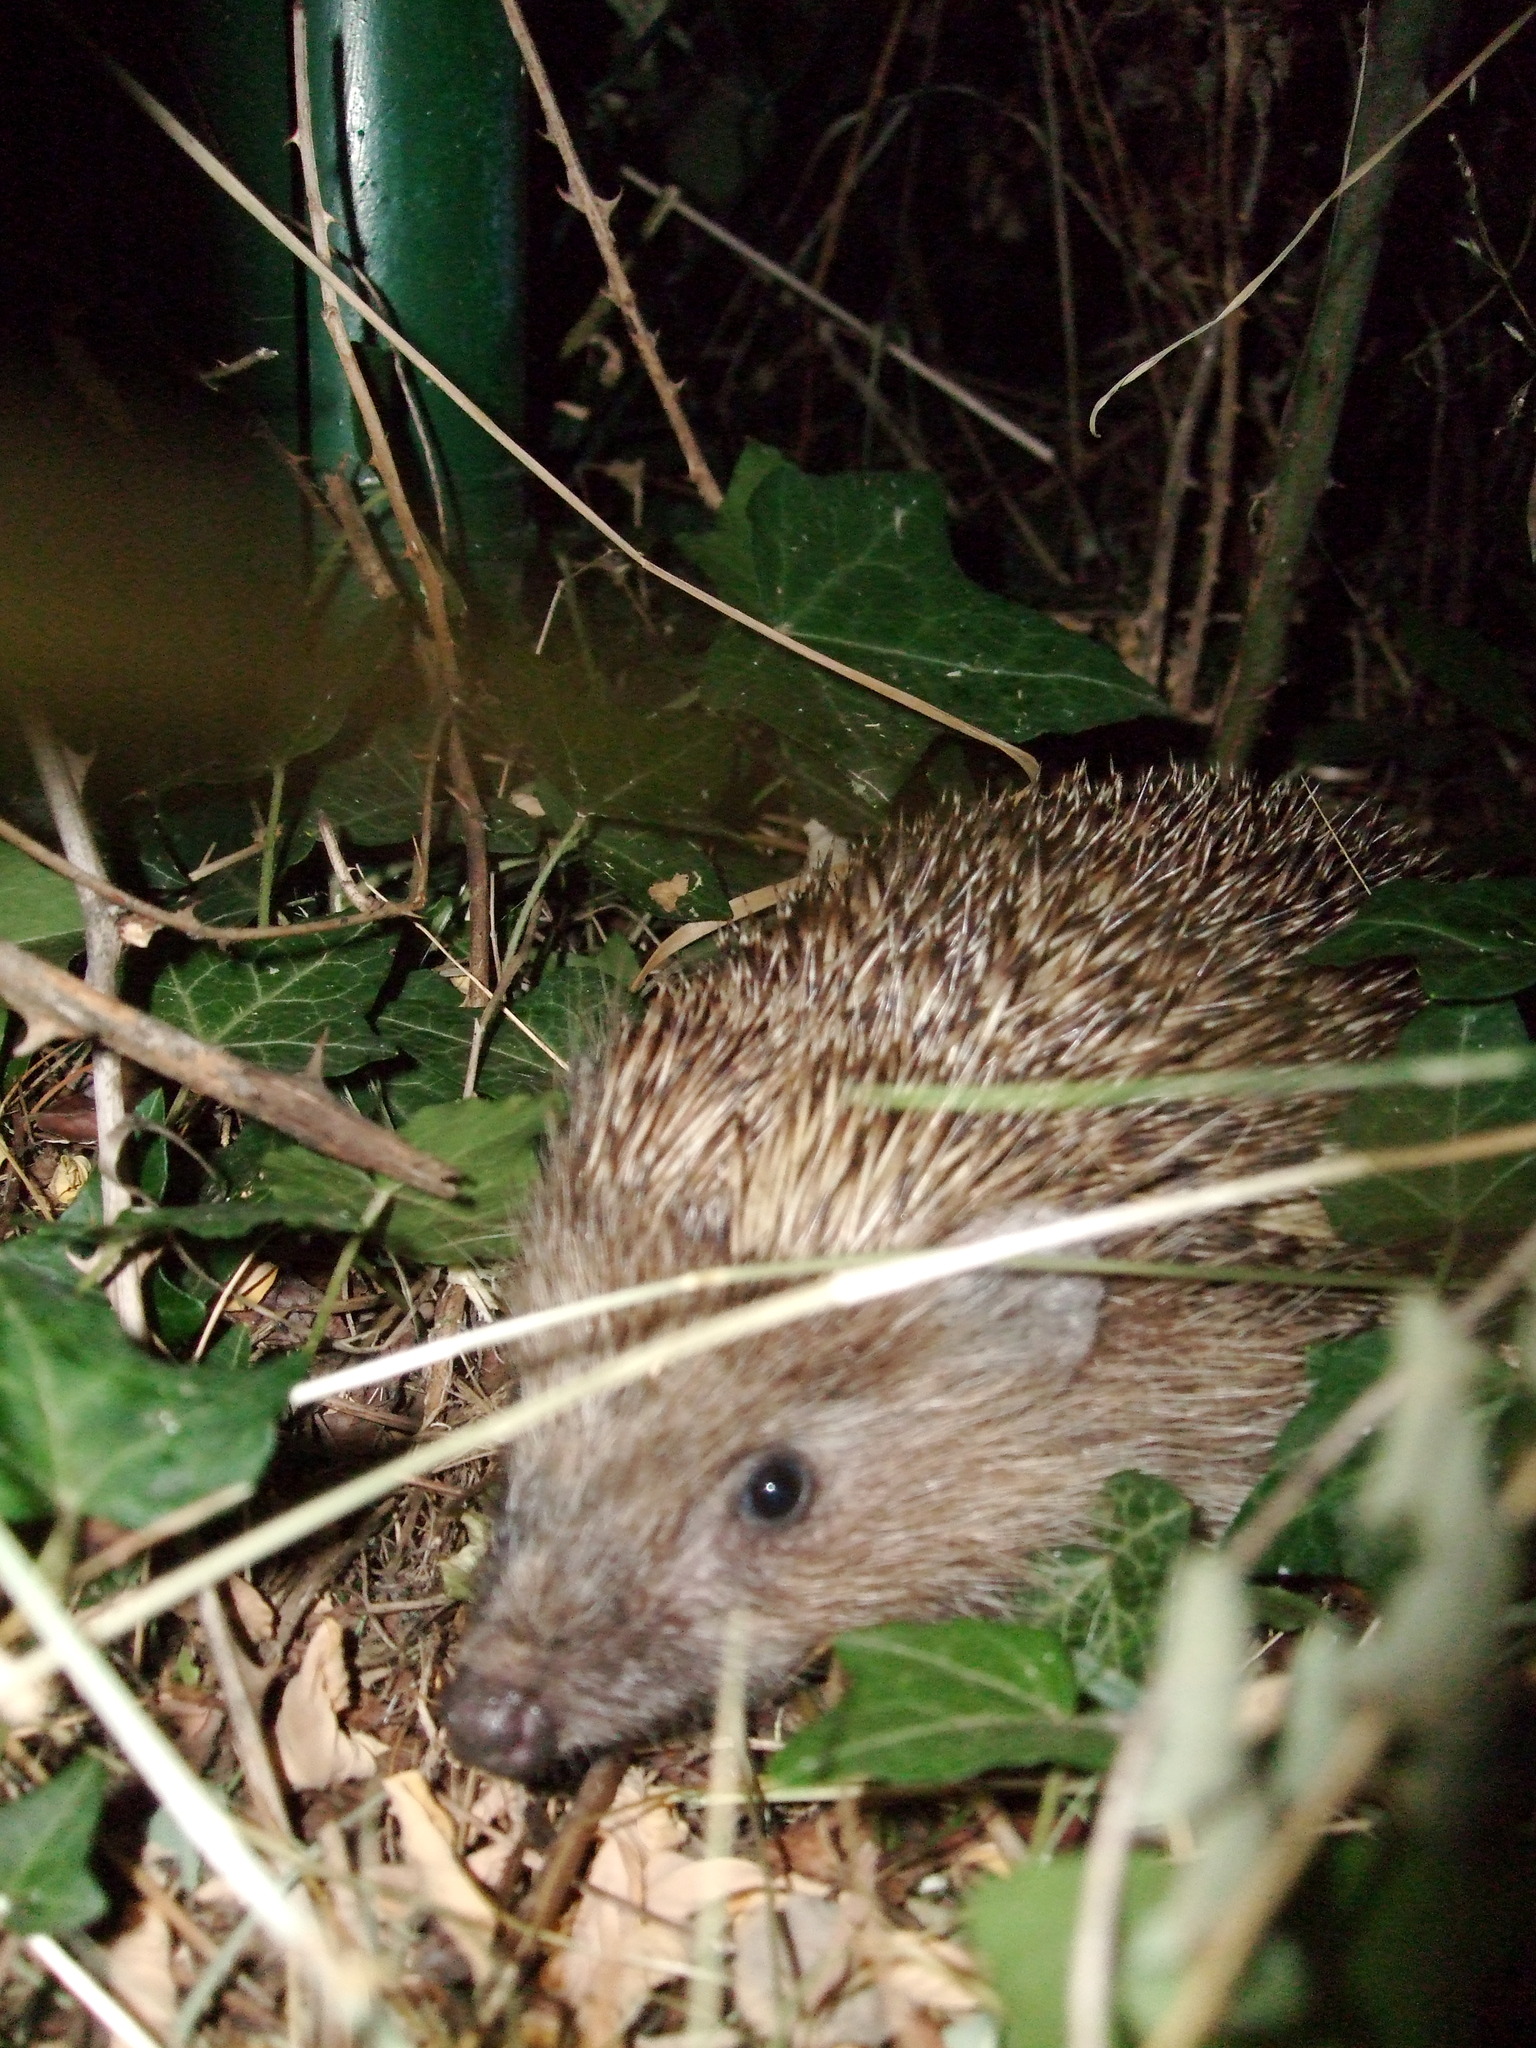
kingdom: Animalia
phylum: Chordata
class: Mammalia
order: Erinaceomorpha
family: Erinaceidae
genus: Erinaceus
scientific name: Erinaceus roumanicus
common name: Northern white-breasted hedgehog
